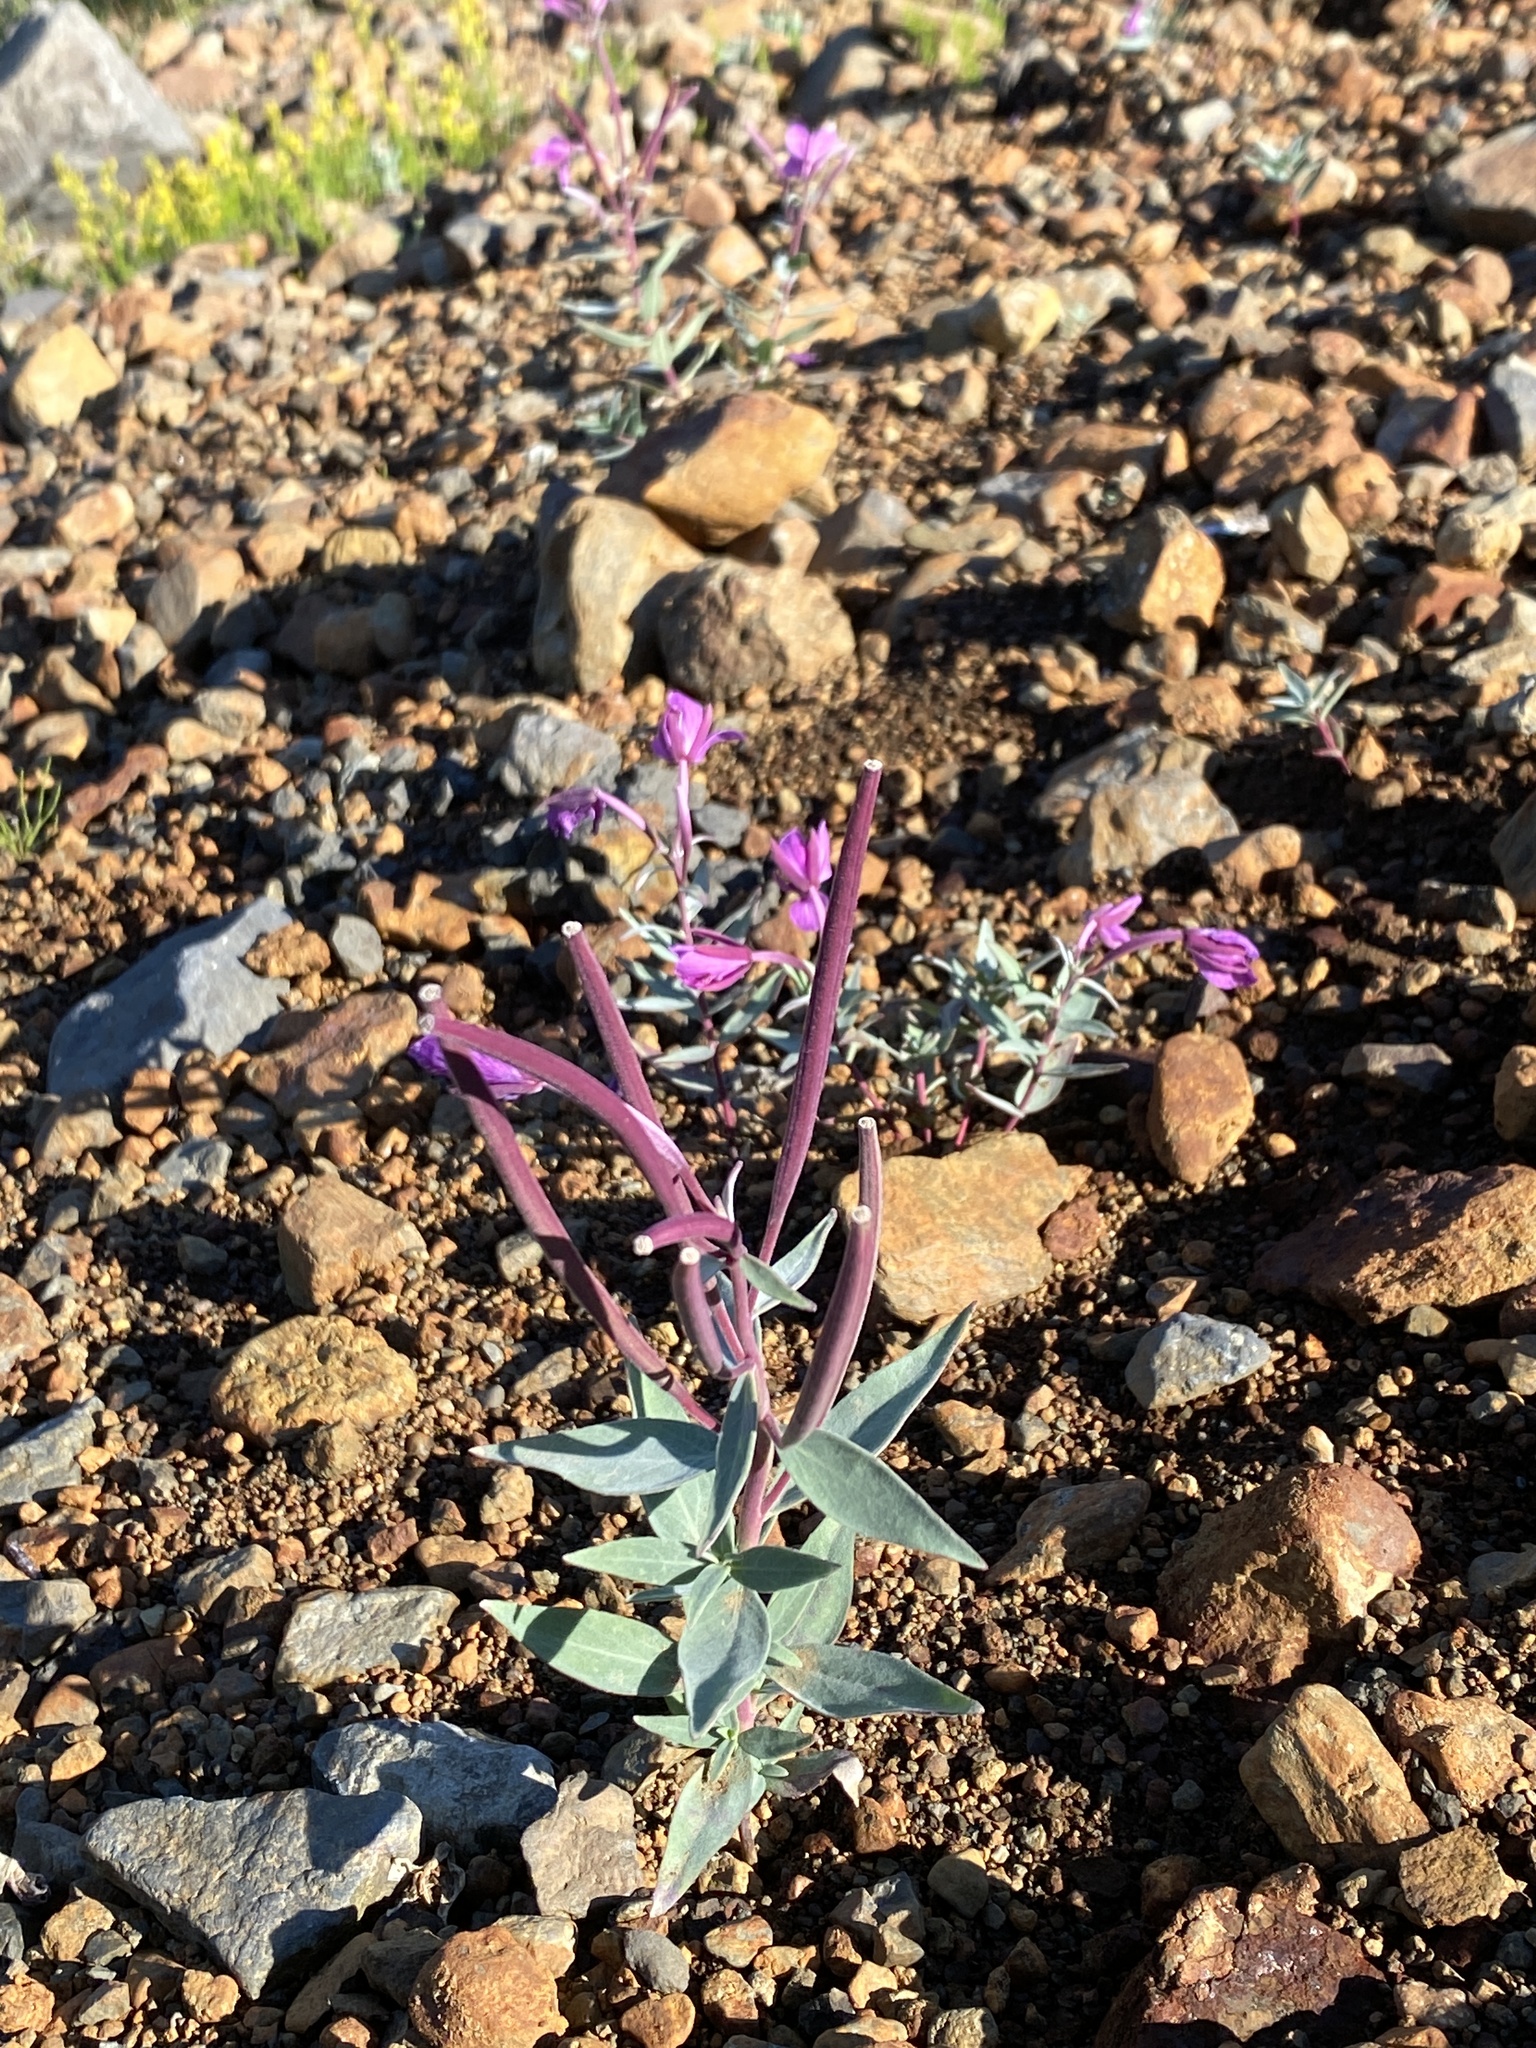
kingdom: Plantae
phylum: Tracheophyta
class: Magnoliopsida
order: Myrtales
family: Onagraceae
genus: Chamaenerion
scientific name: Chamaenerion latifolium
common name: Dwarf fireweed
